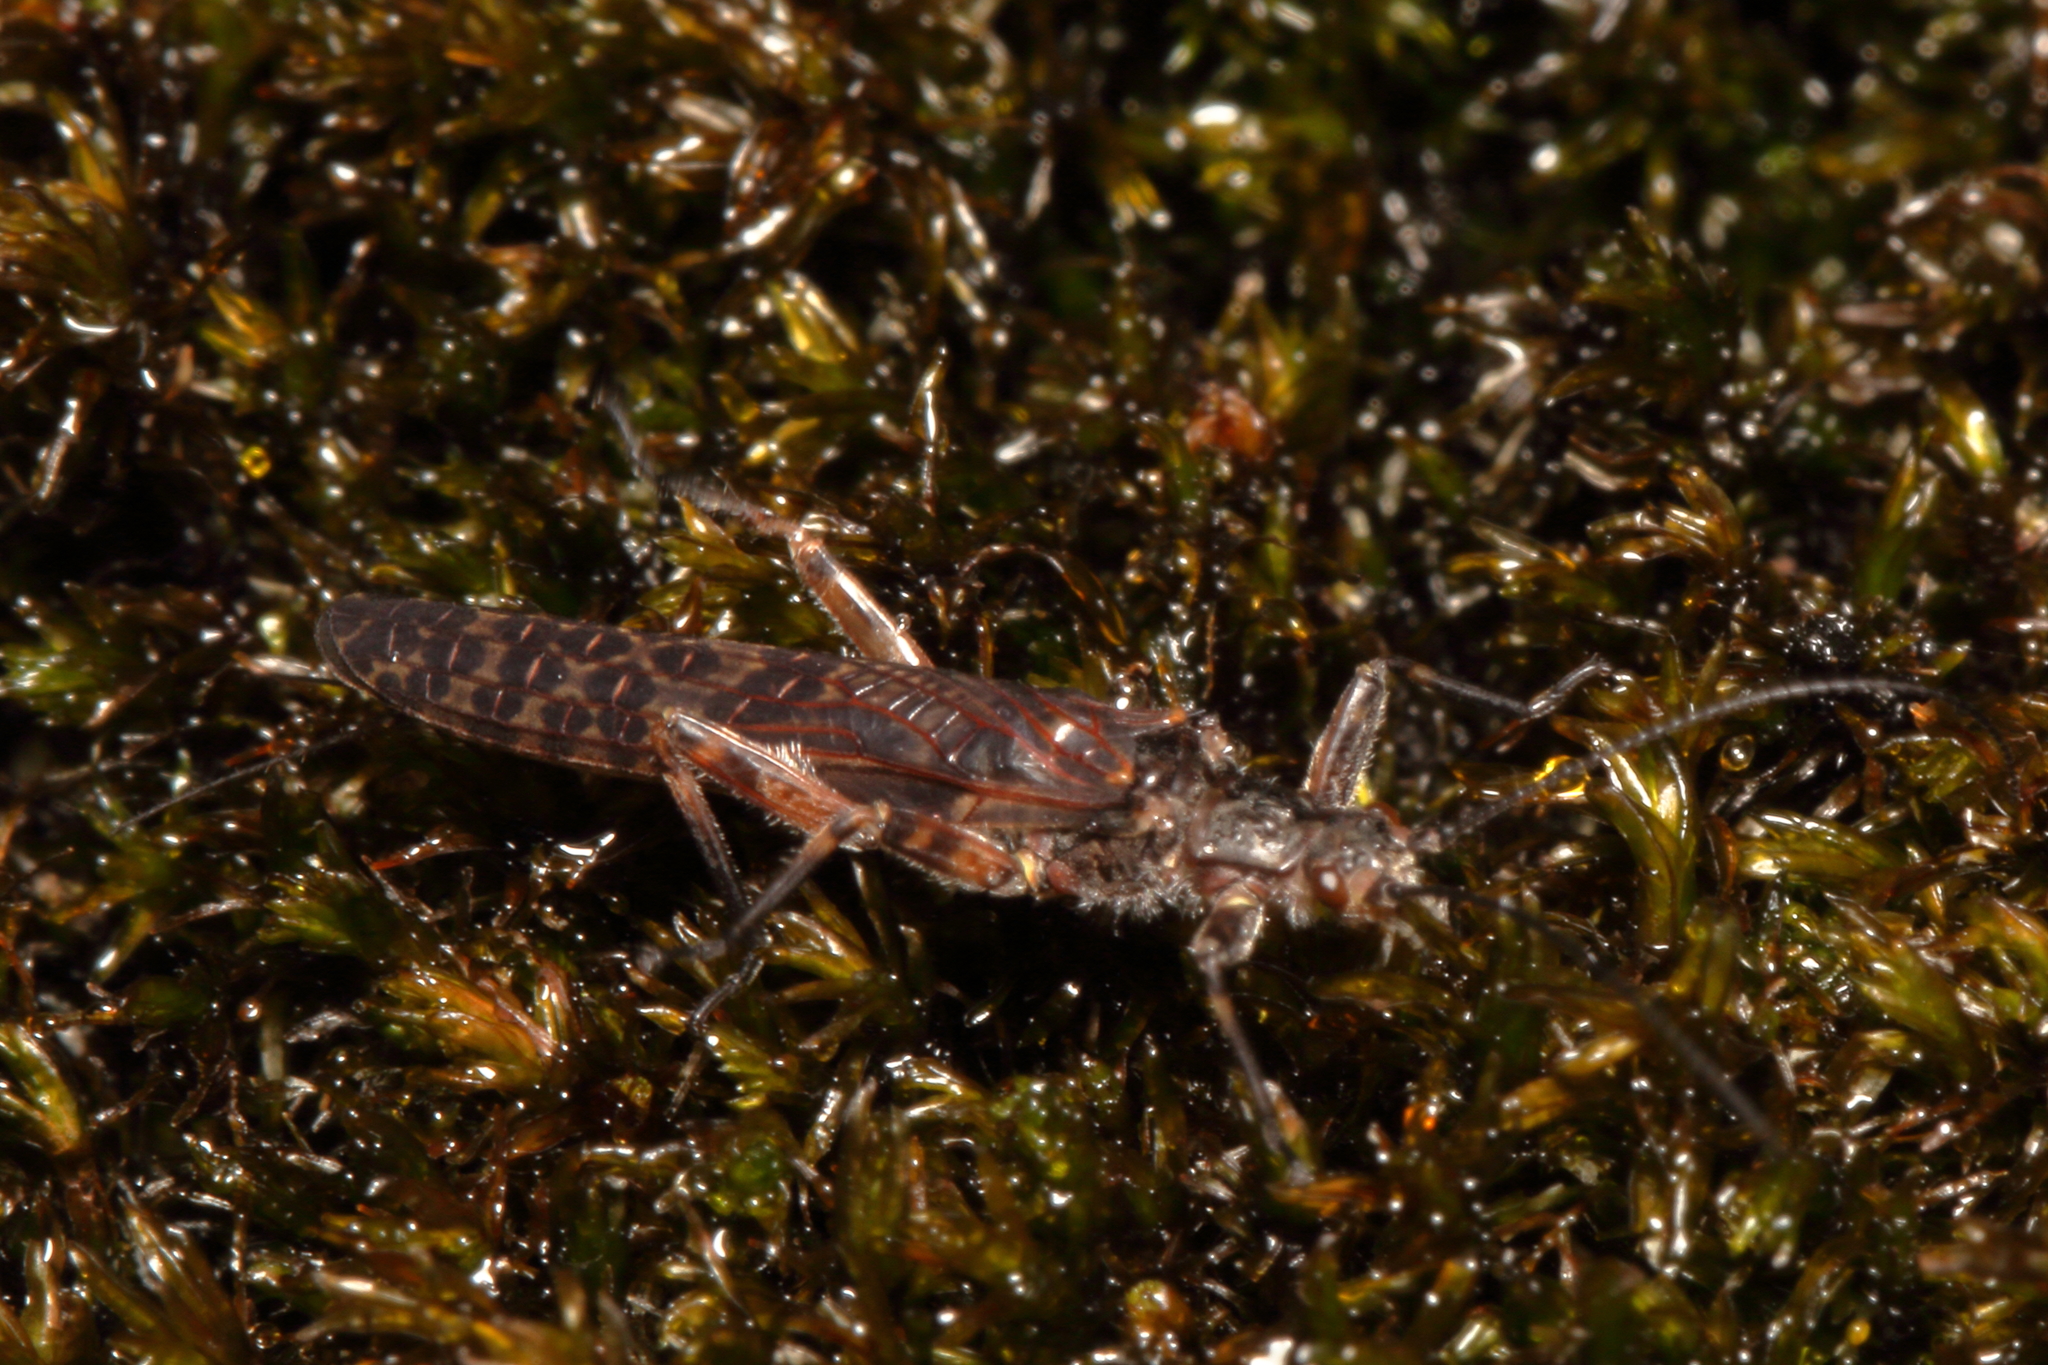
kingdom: Animalia
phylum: Arthropoda
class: Insecta
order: Plecoptera
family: Gripopterygidae
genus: Zelandoperla
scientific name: Zelandoperla agnetis
